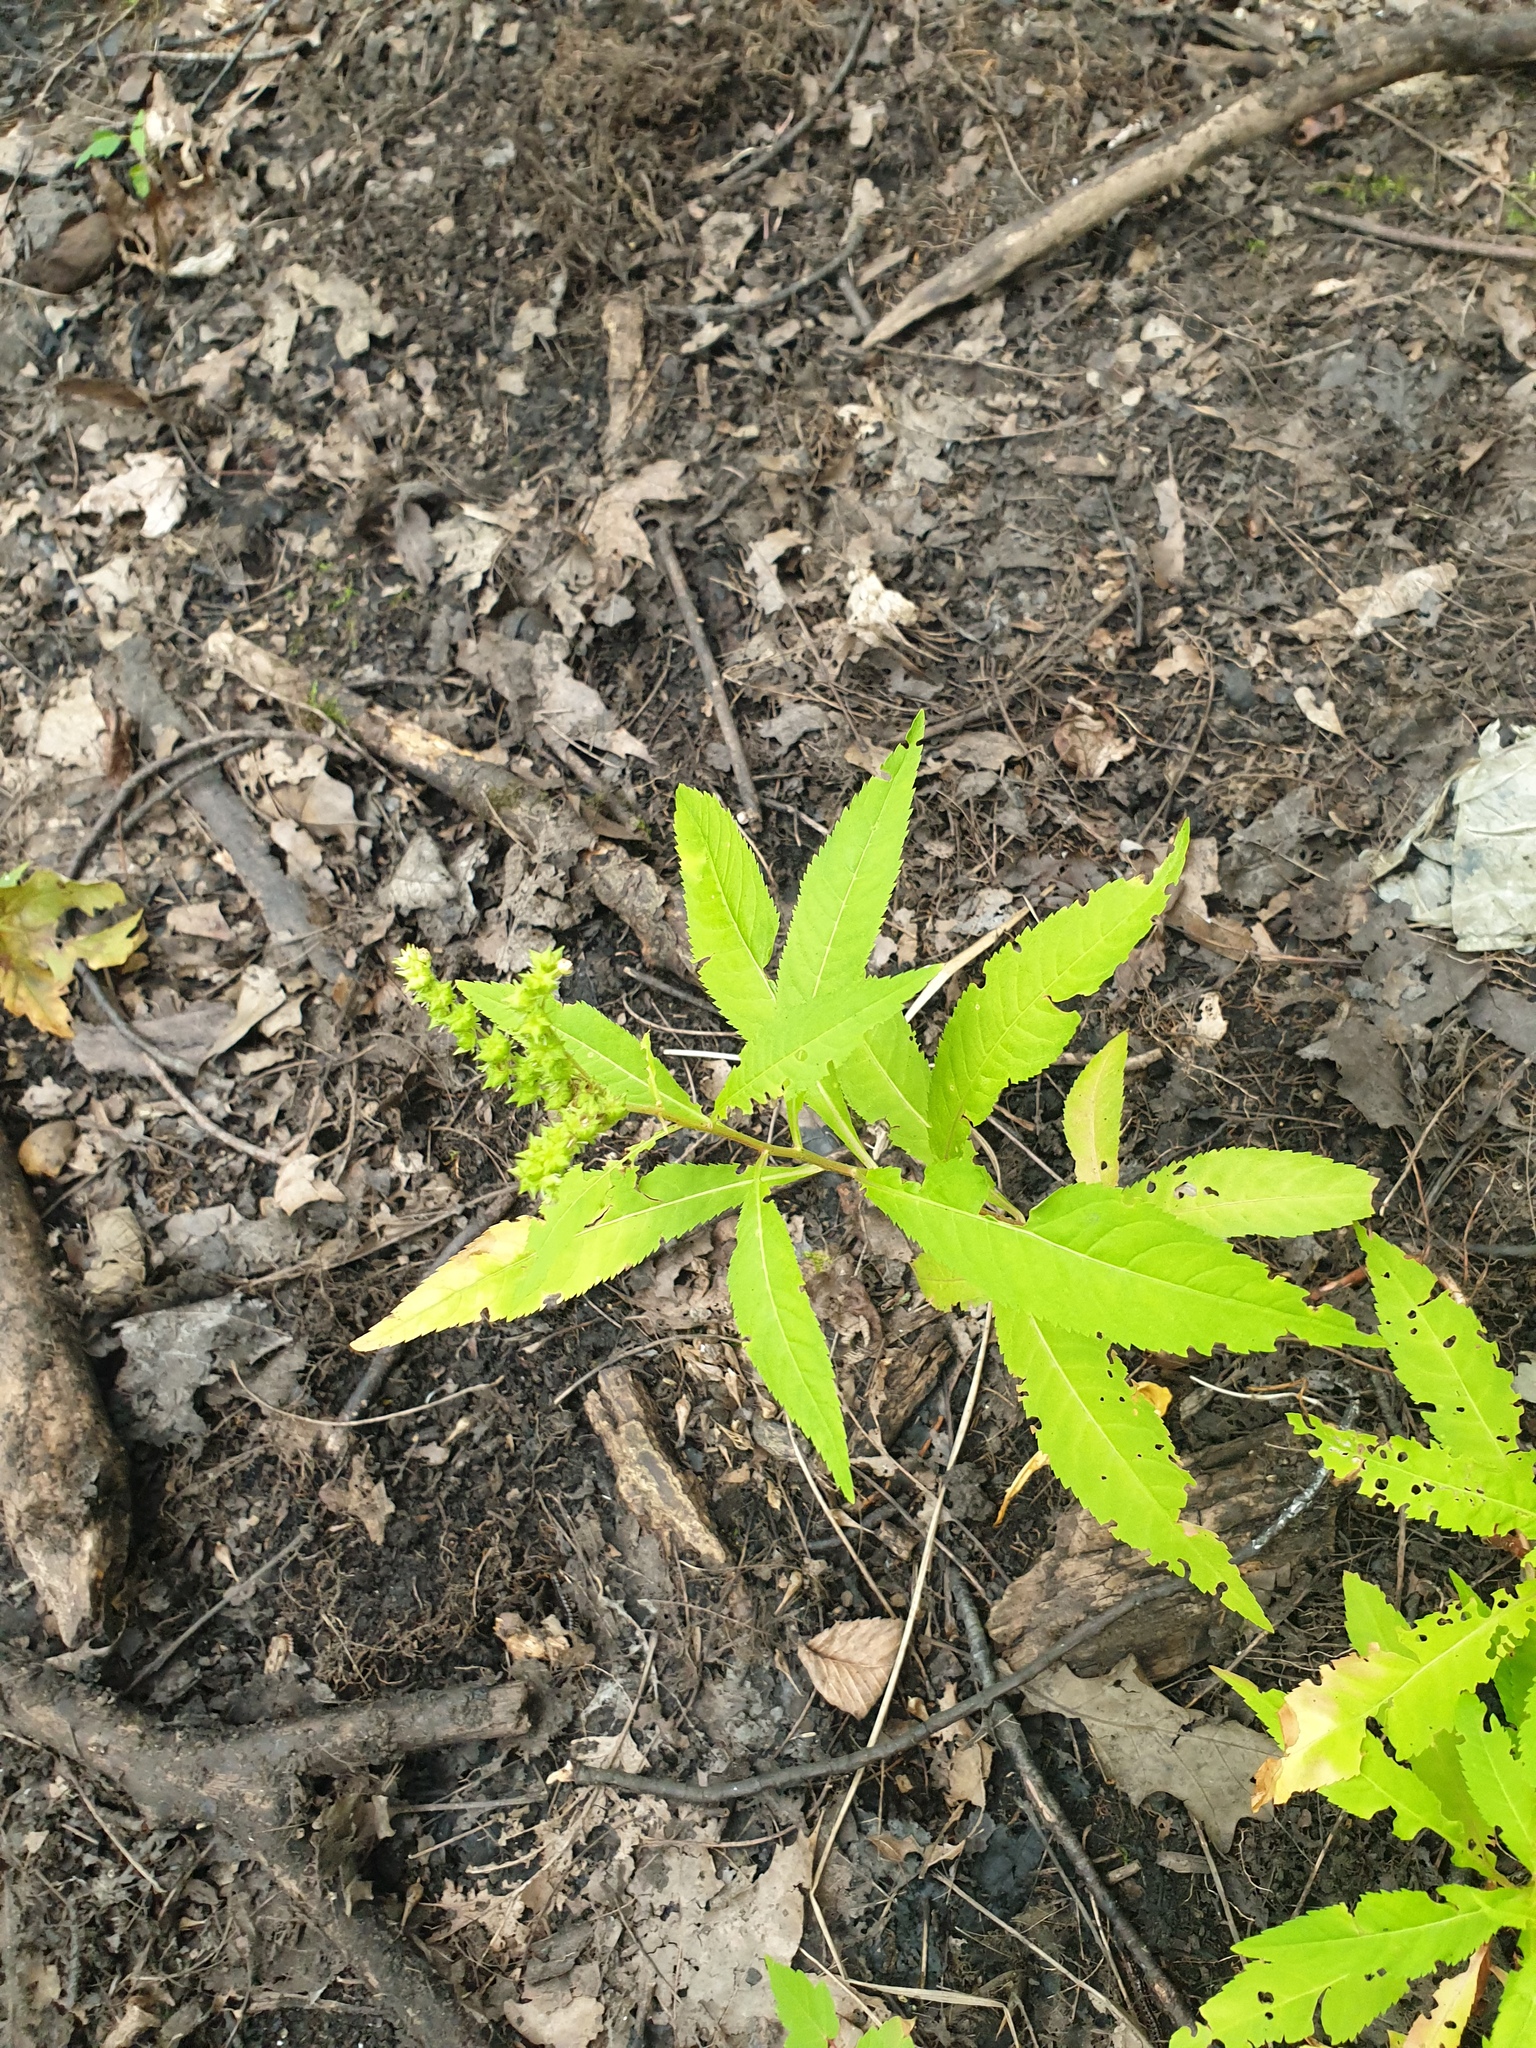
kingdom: Plantae
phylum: Tracheophyta
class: Magnoliopsida
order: Saxifragales
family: Penthoraceae
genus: Penthorum
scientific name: Penthorum sedoides
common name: Ditch stonecrop
